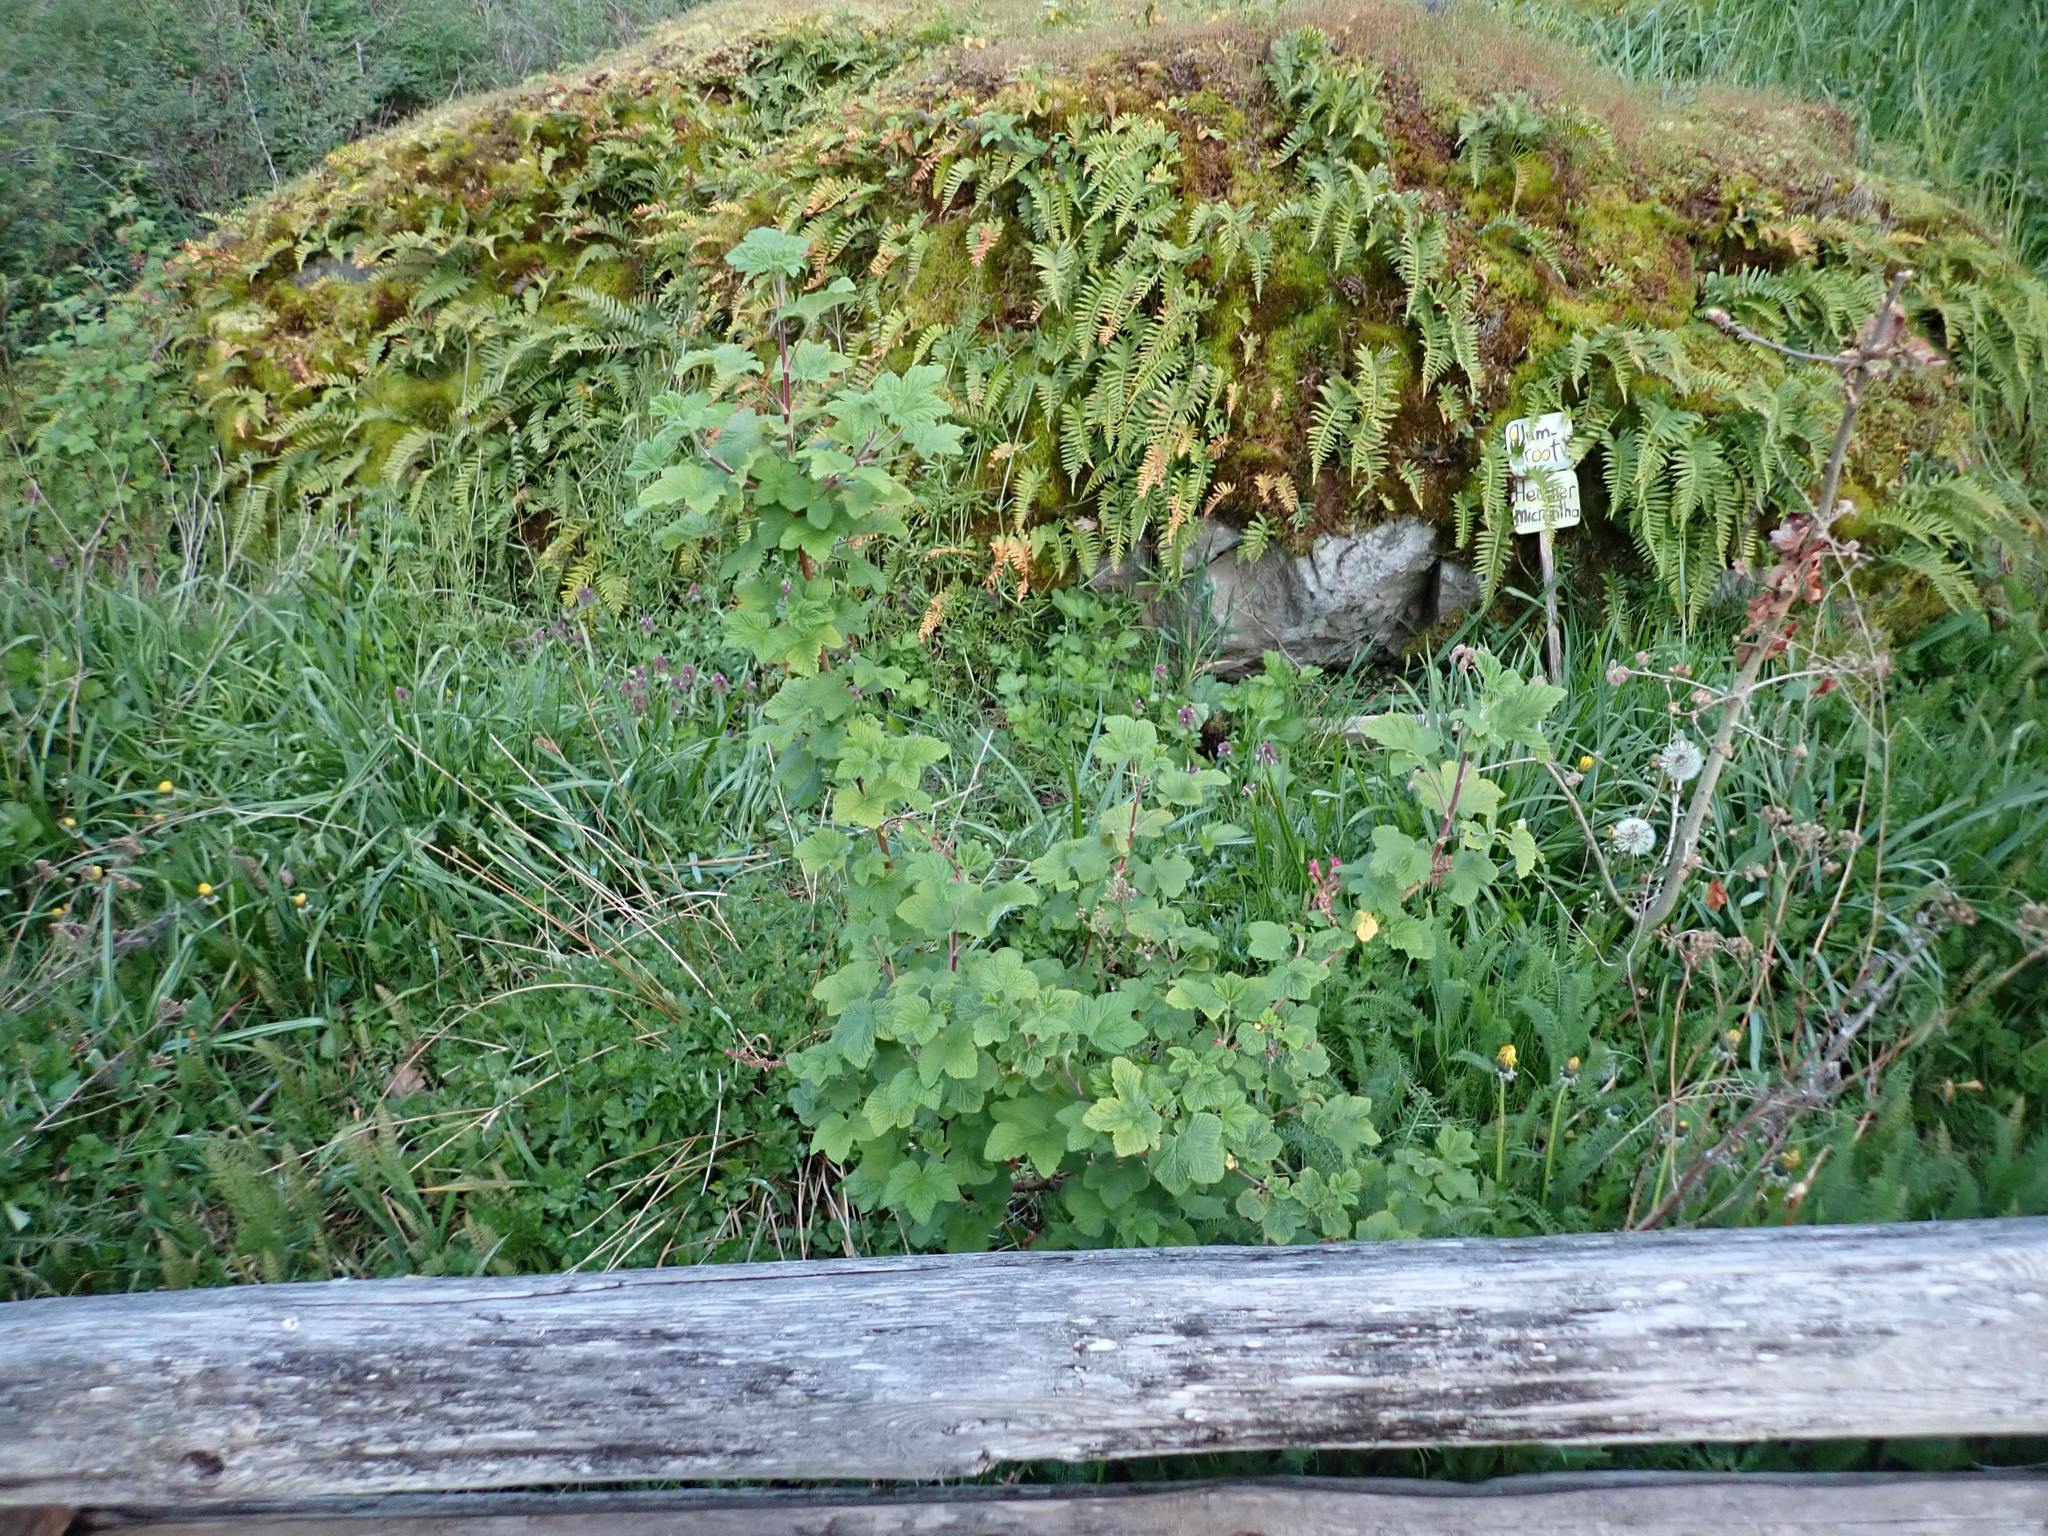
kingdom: Plantae
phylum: Tracheophyta
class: Magnoliopsida
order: Saxifragales
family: Grossulariaceae
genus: Ribes
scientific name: Ribes sanguineum
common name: Flowering currant
